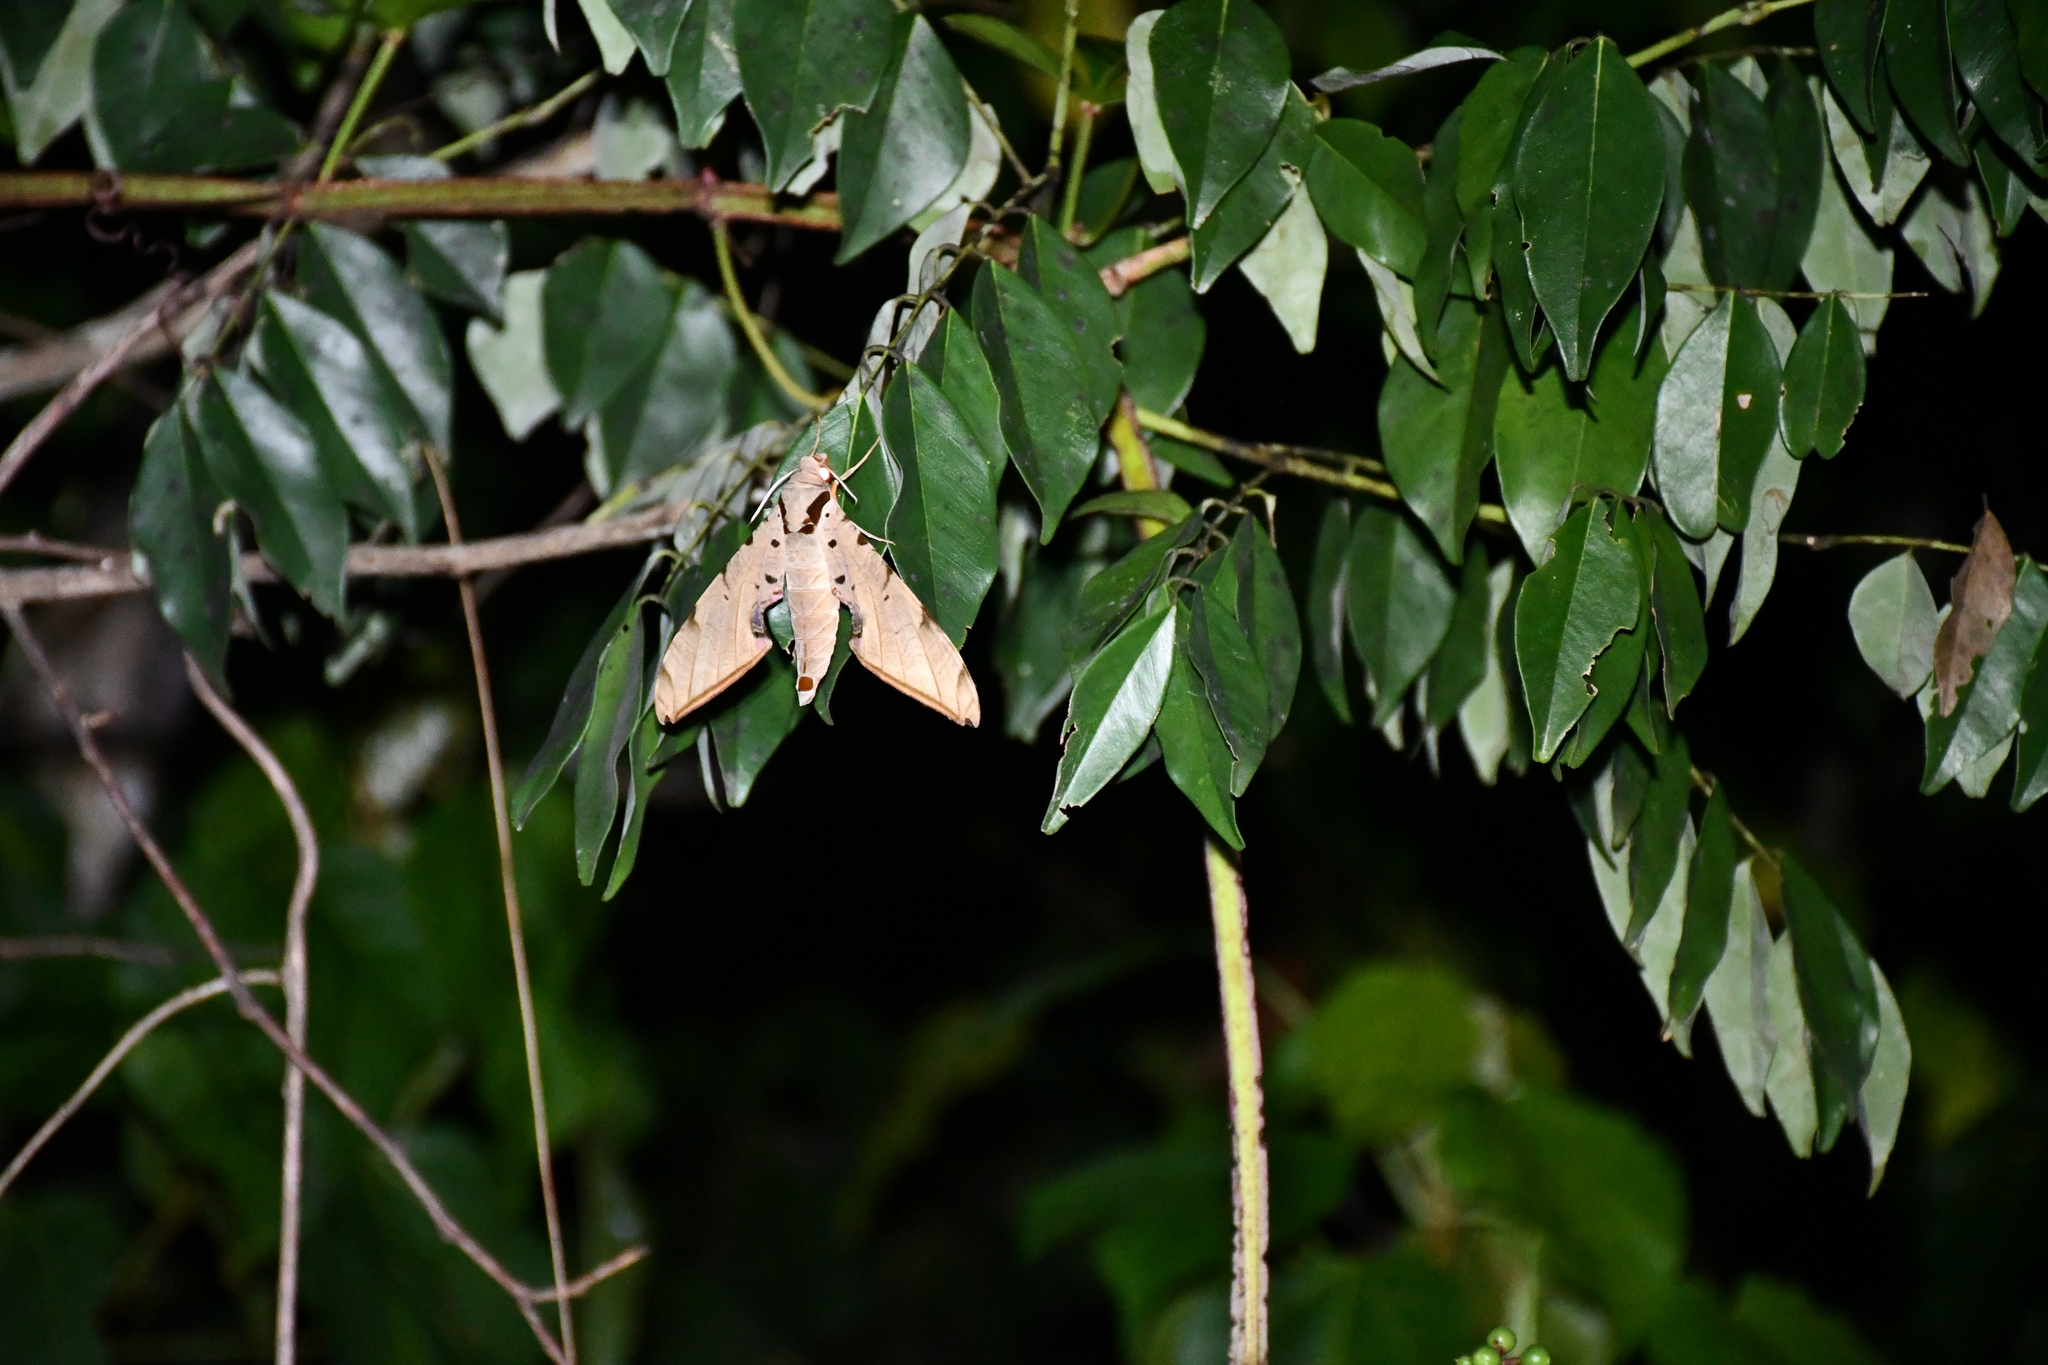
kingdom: Animalia
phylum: Arthropoda
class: Insecta
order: Lepidoptera
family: Sphingidae
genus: Protambulyx
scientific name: Protambulyx strigilis
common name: Streaked sphinx
